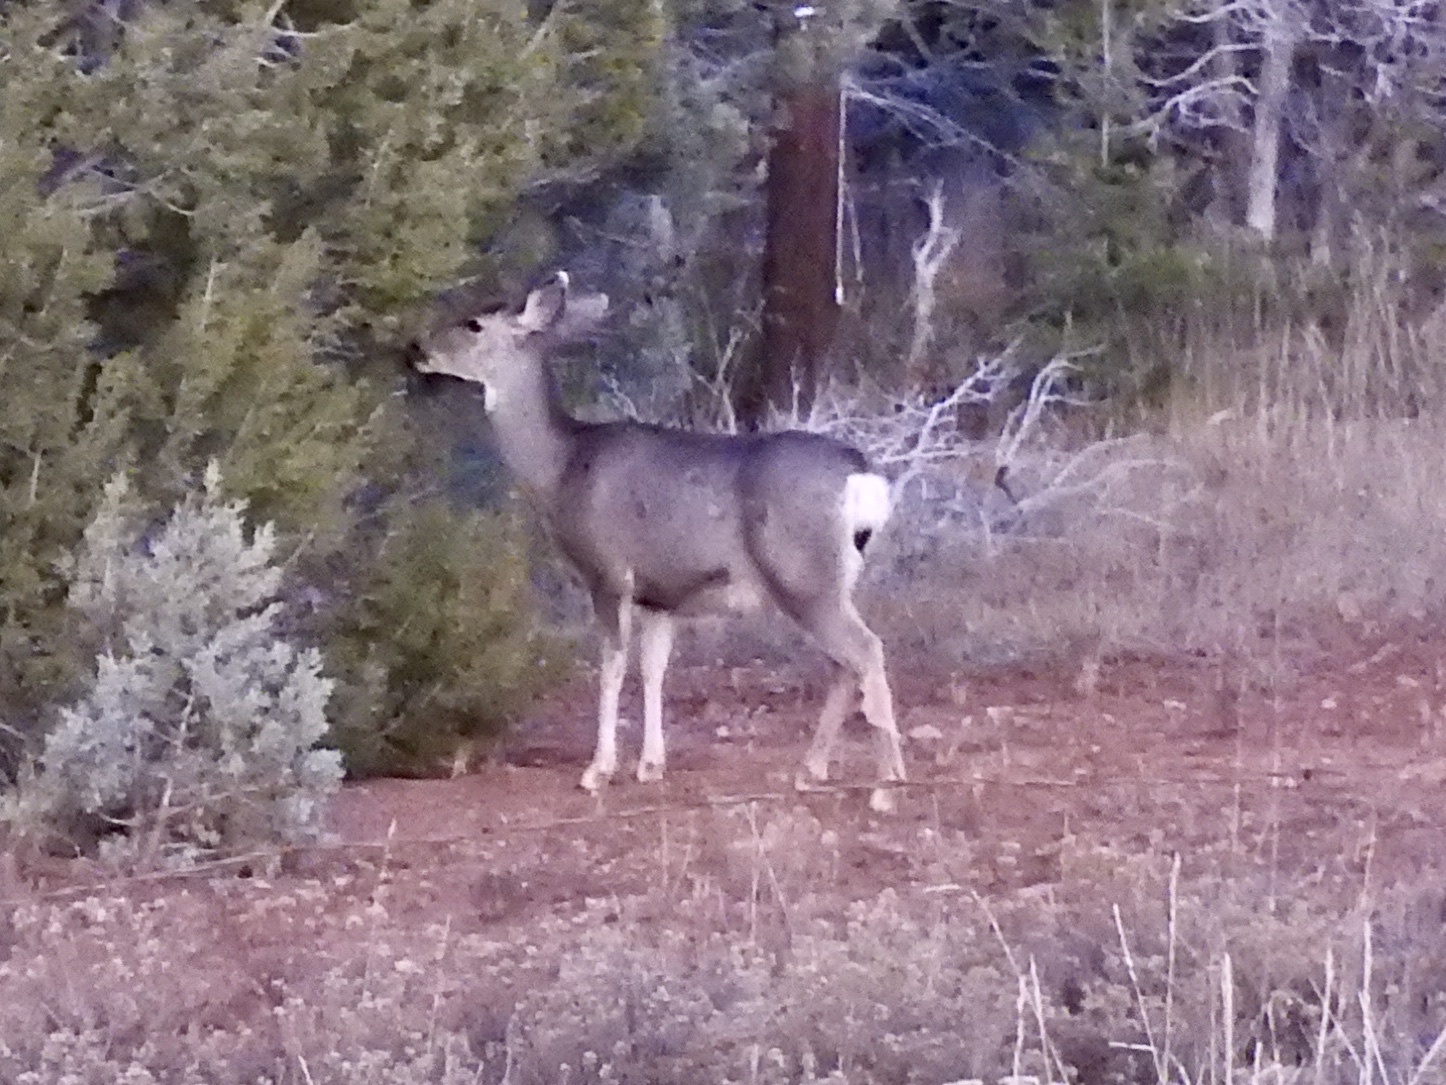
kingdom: Animalia
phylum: Chordata
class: Mammalia
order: Artiodactyla
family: Cervidae
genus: Odocoileus
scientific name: Odocoileus hemionus
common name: Mule deer
